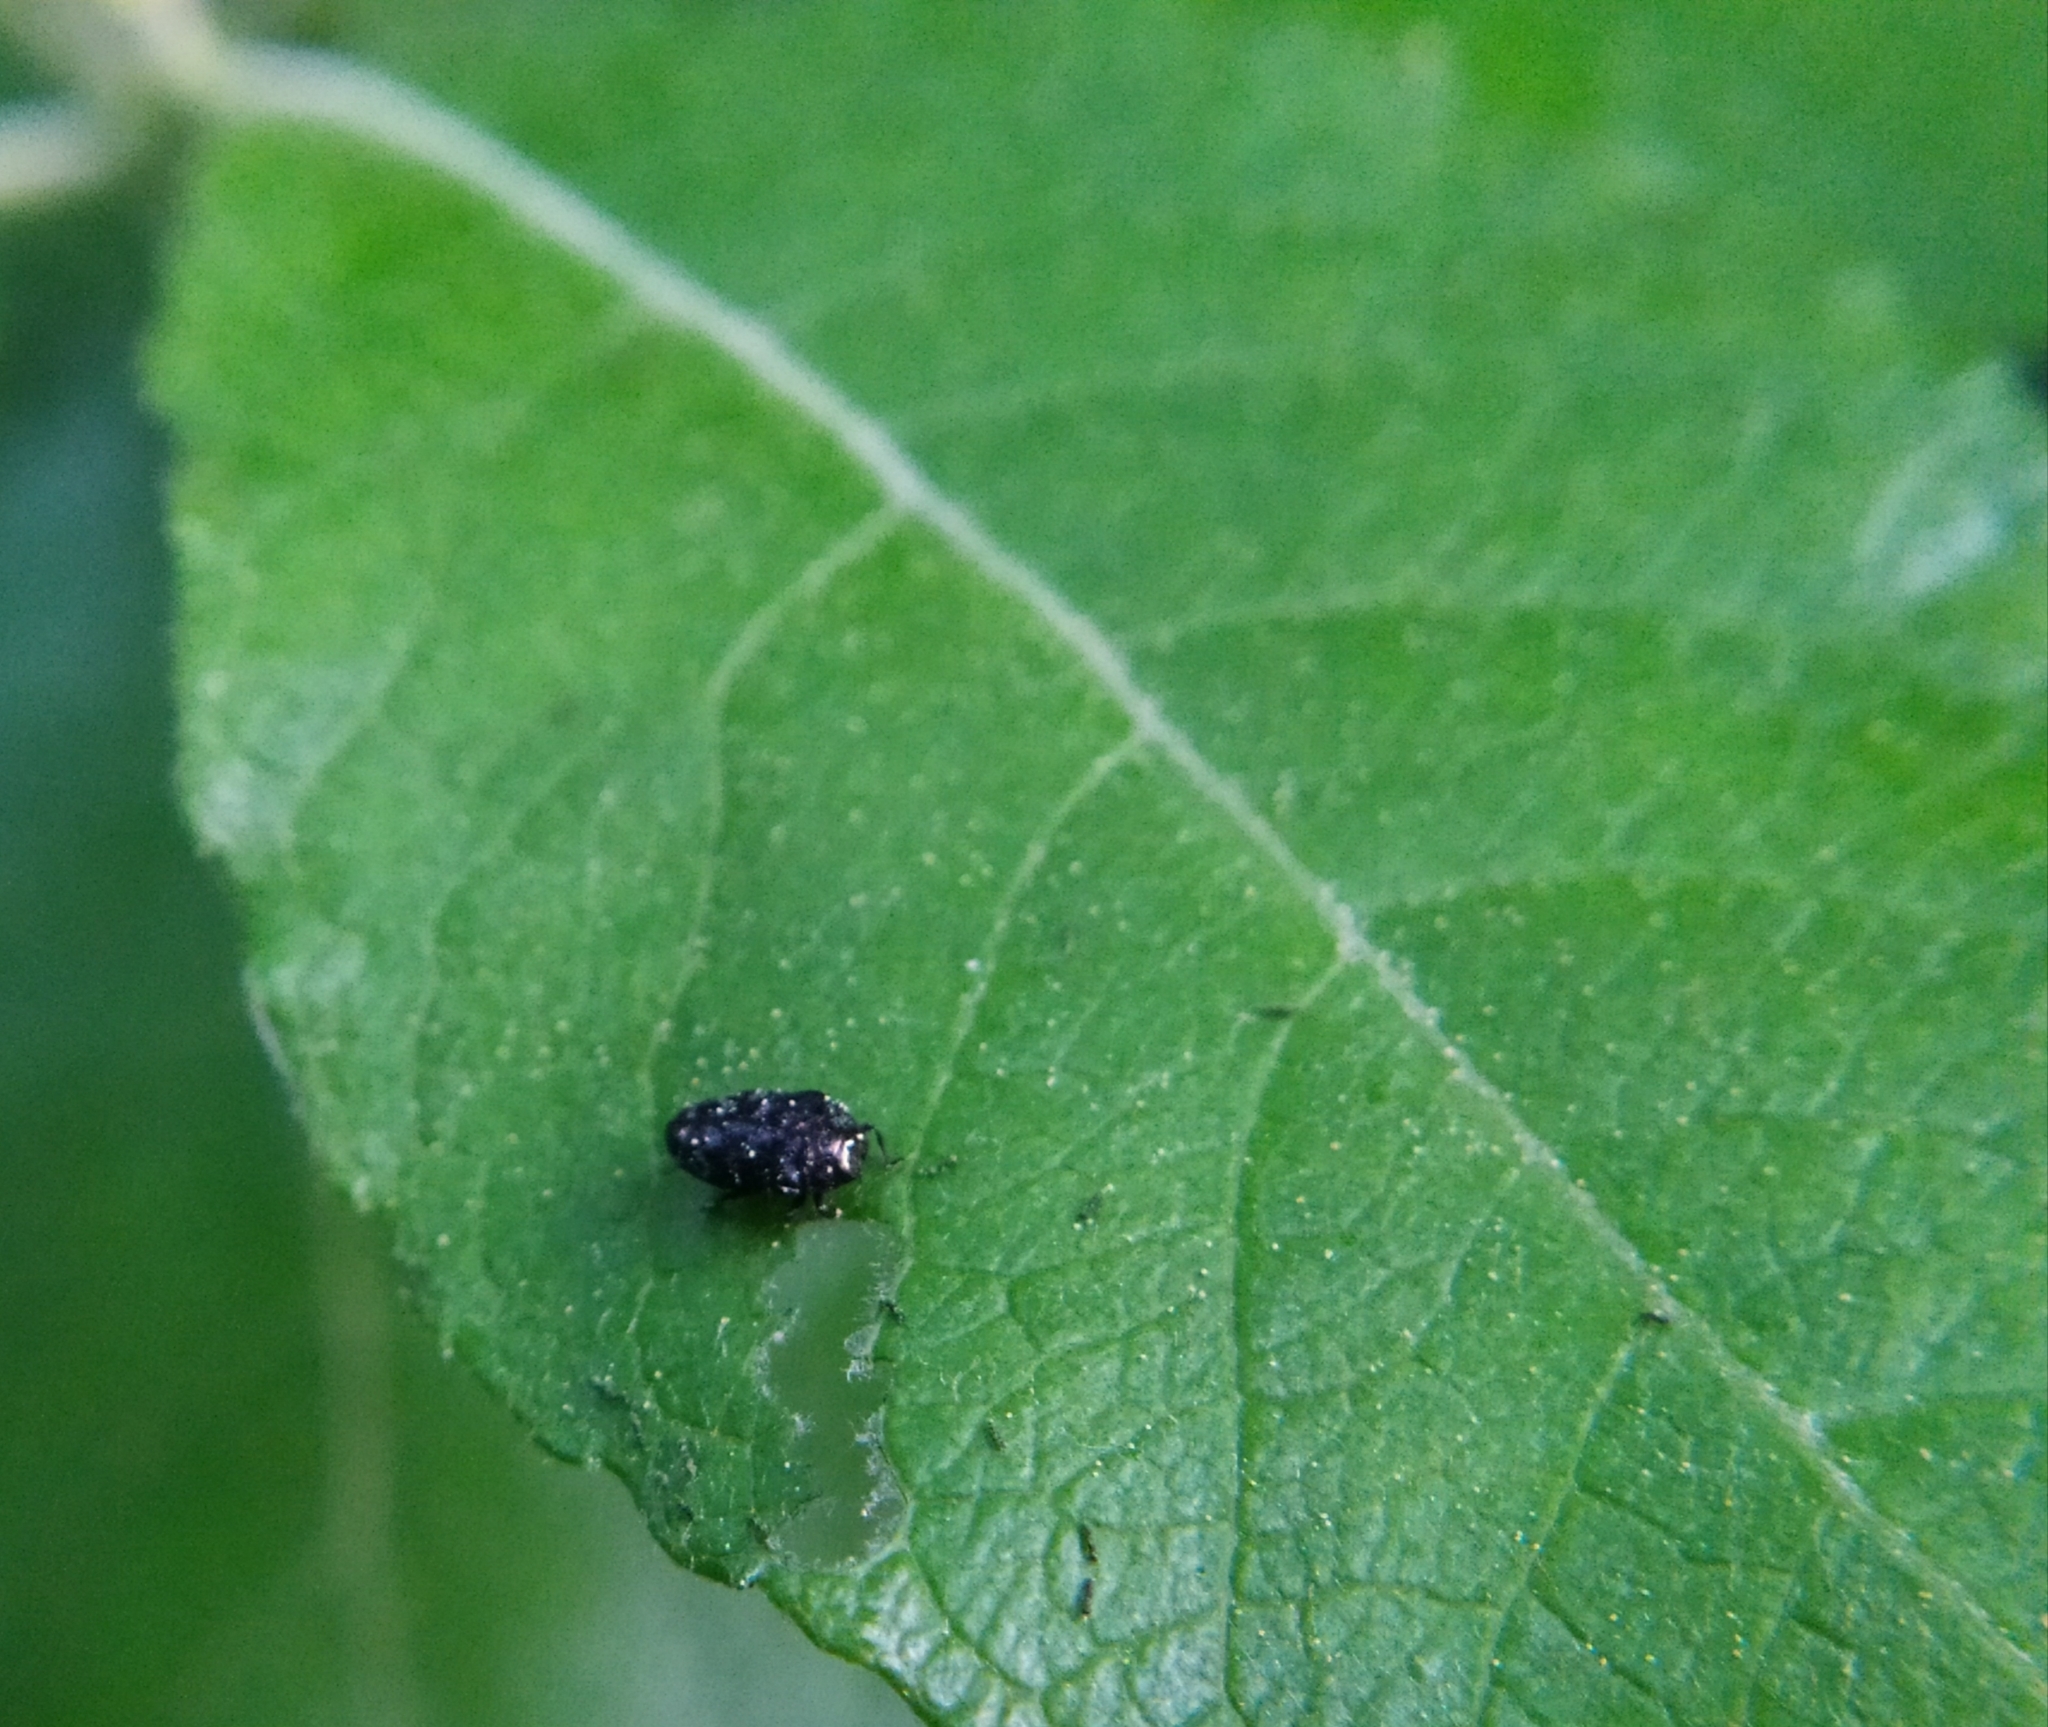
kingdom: Animalia
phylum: Arthropoda
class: Insecta
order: Coleoptera
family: Buprestidae
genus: Trachys
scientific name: Trachys minutus
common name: Metallic wood-boring beetle
